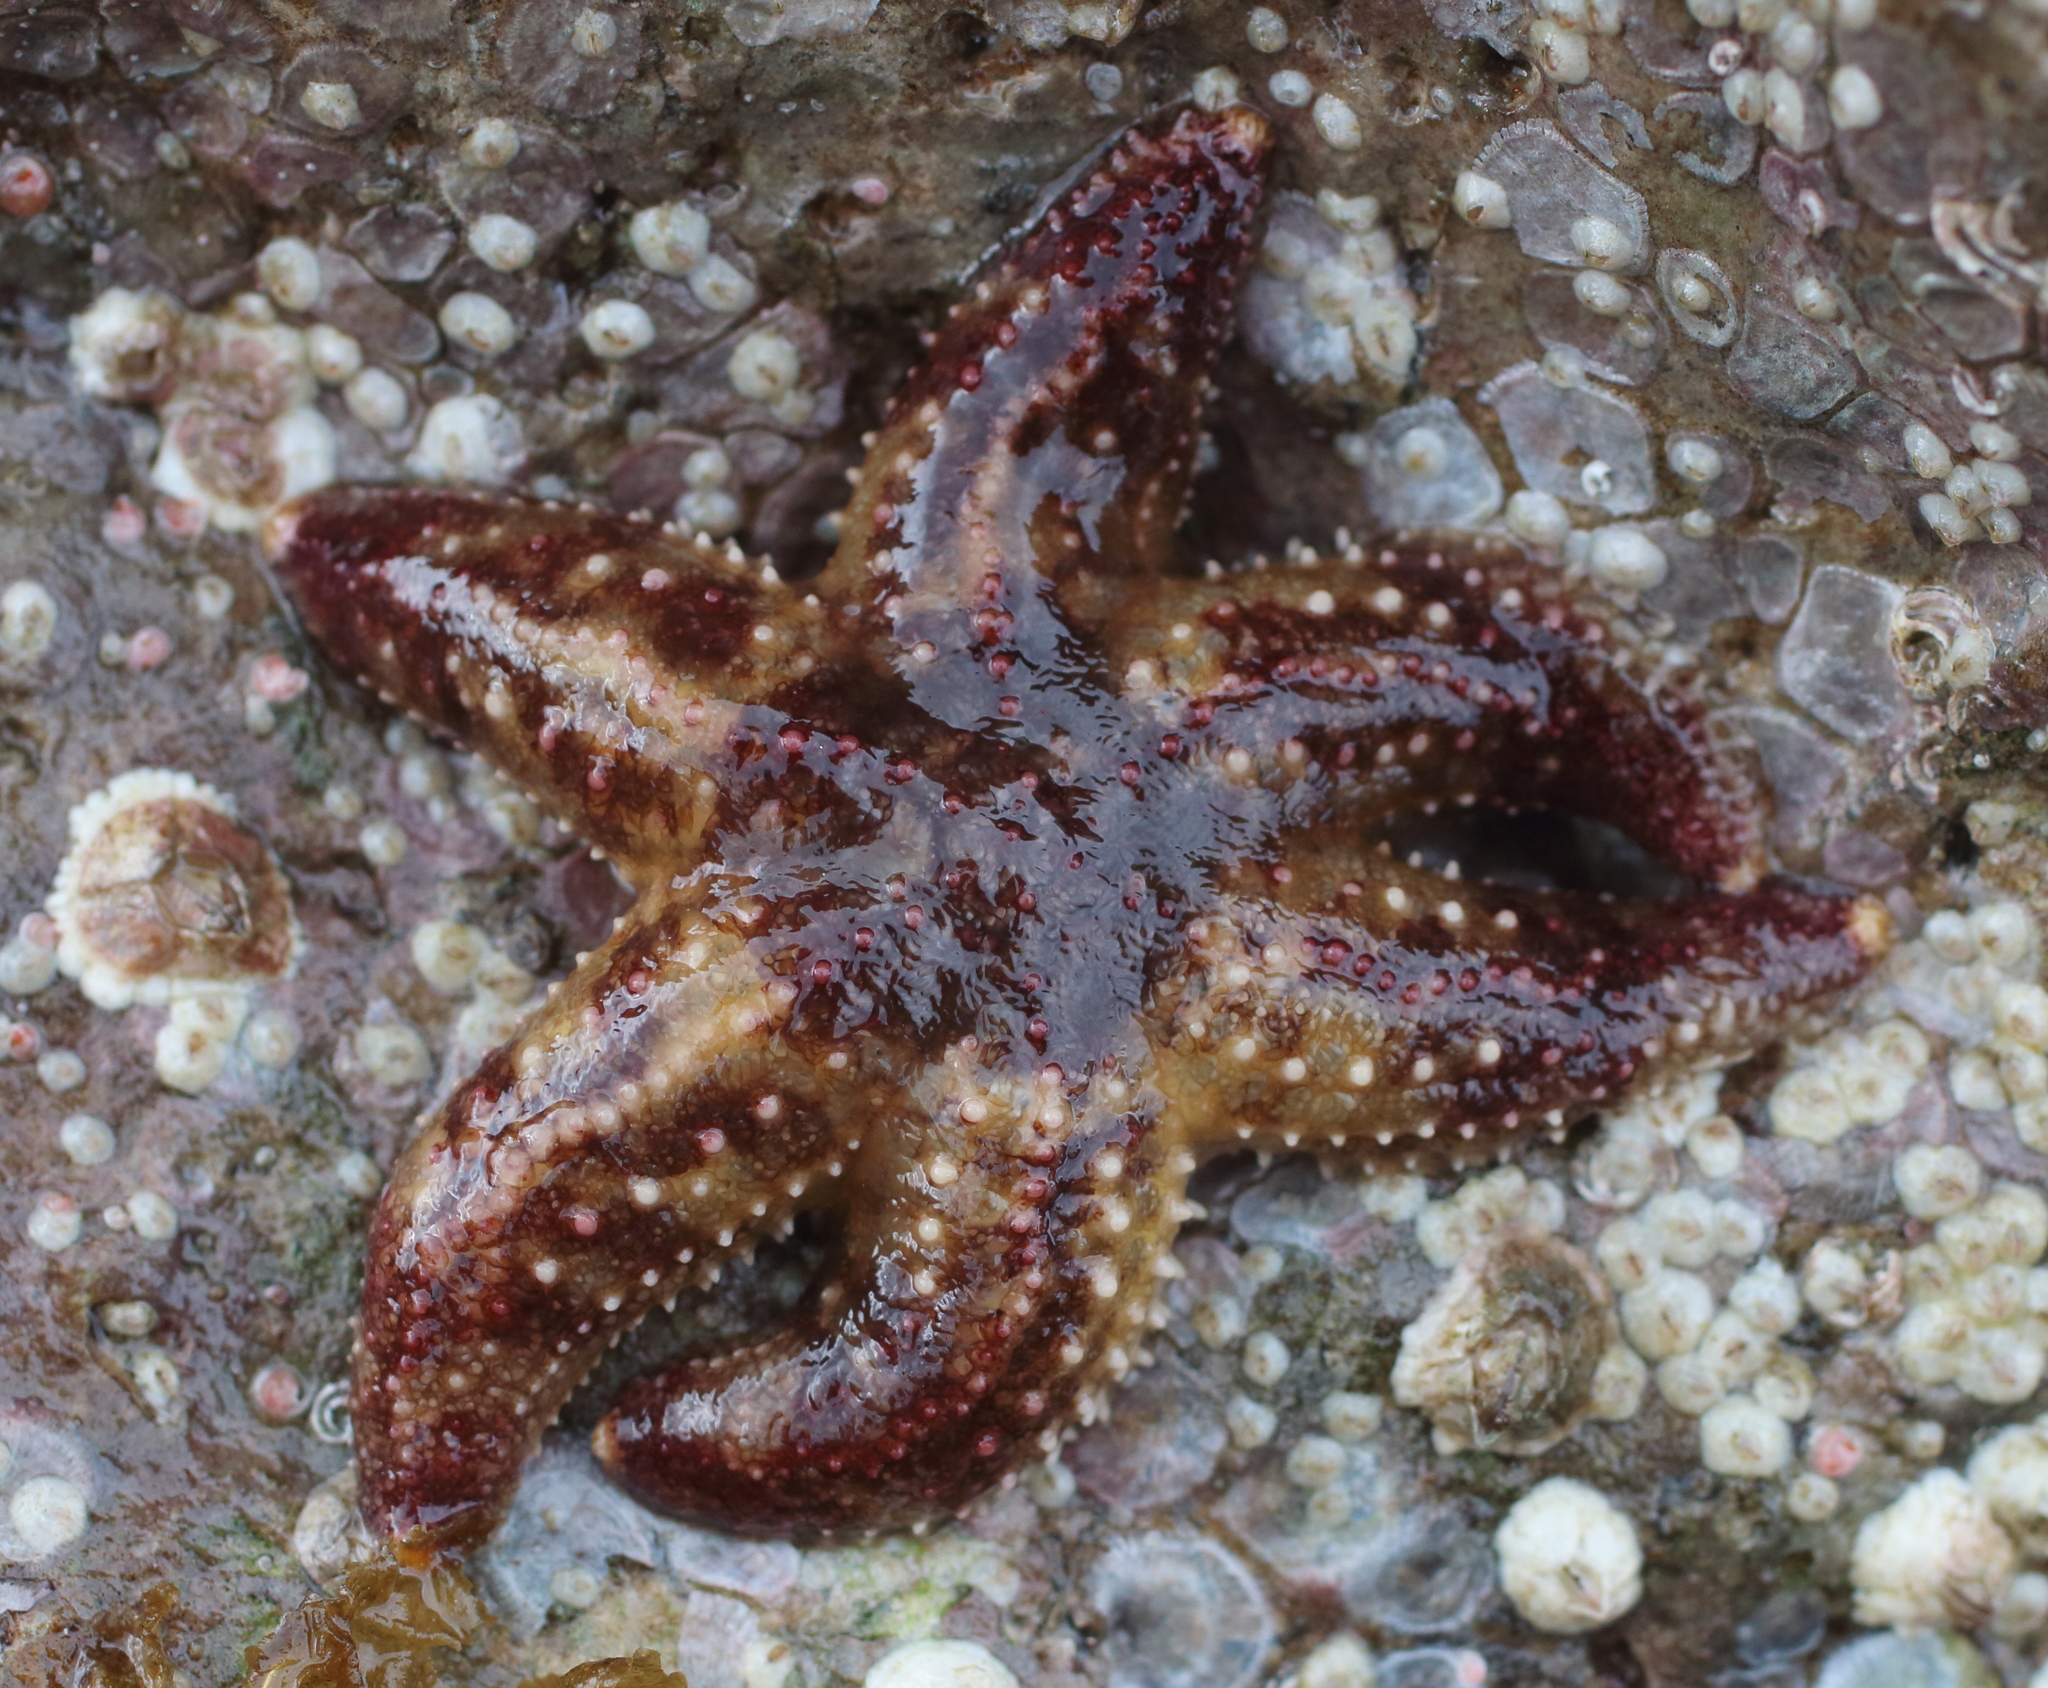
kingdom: Animalia
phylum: Echinodermata
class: Asteroidea
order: Forcipulatida
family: Asteriidae
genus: Leptasterias
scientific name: Leptasterias hexactis
